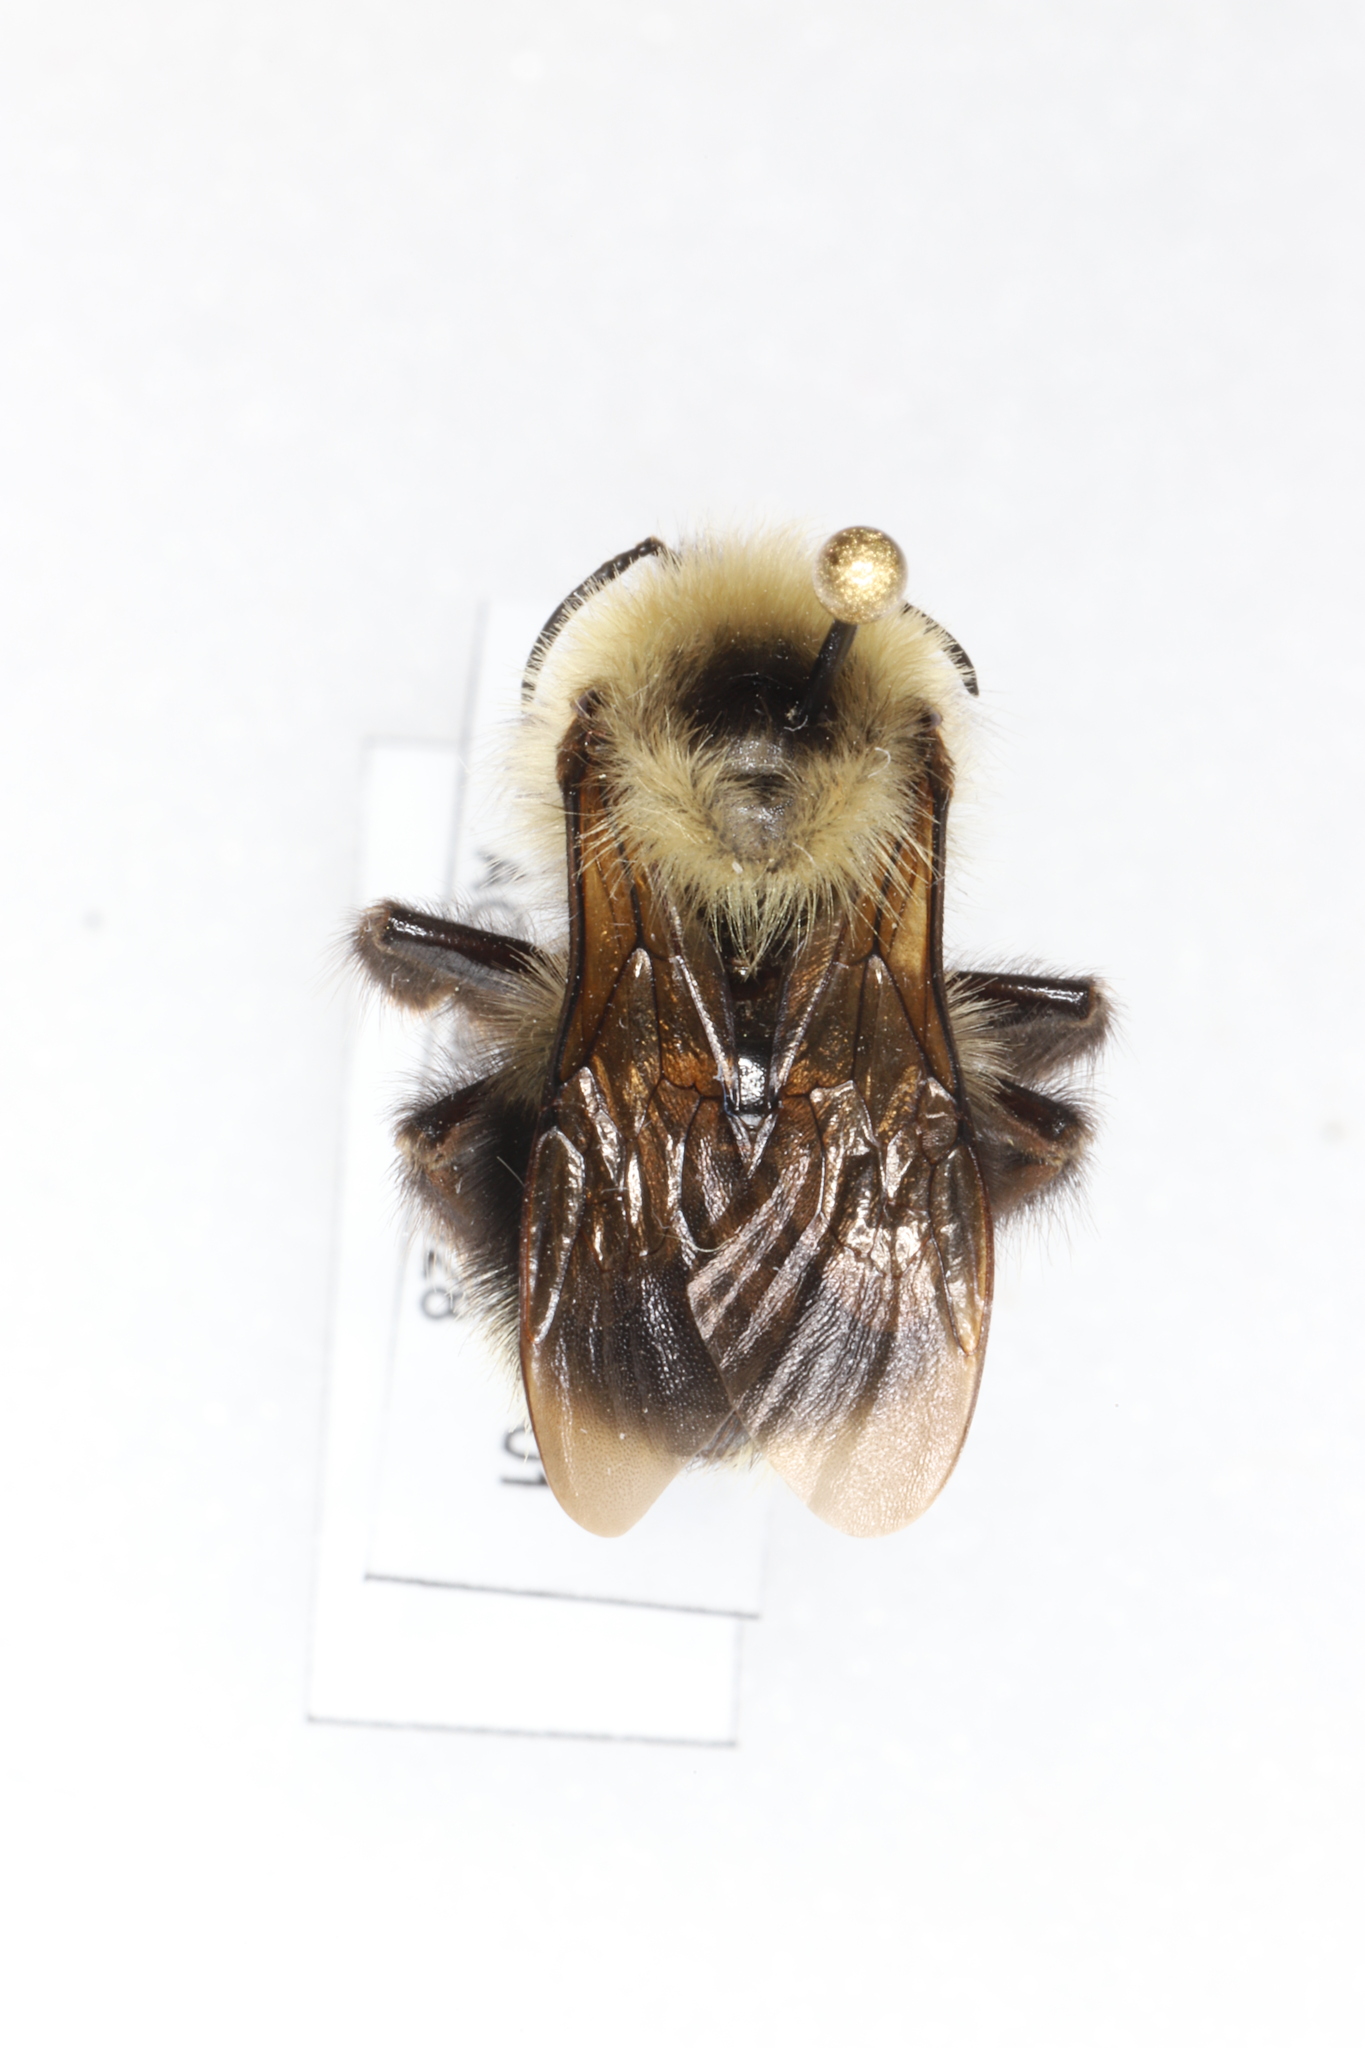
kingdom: Animalia
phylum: Arthropoda
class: Insecta
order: Hymenoptera
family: Apidae
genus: Bombus
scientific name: Bombus flavidus
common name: Fernald cuckoo bumble bee
